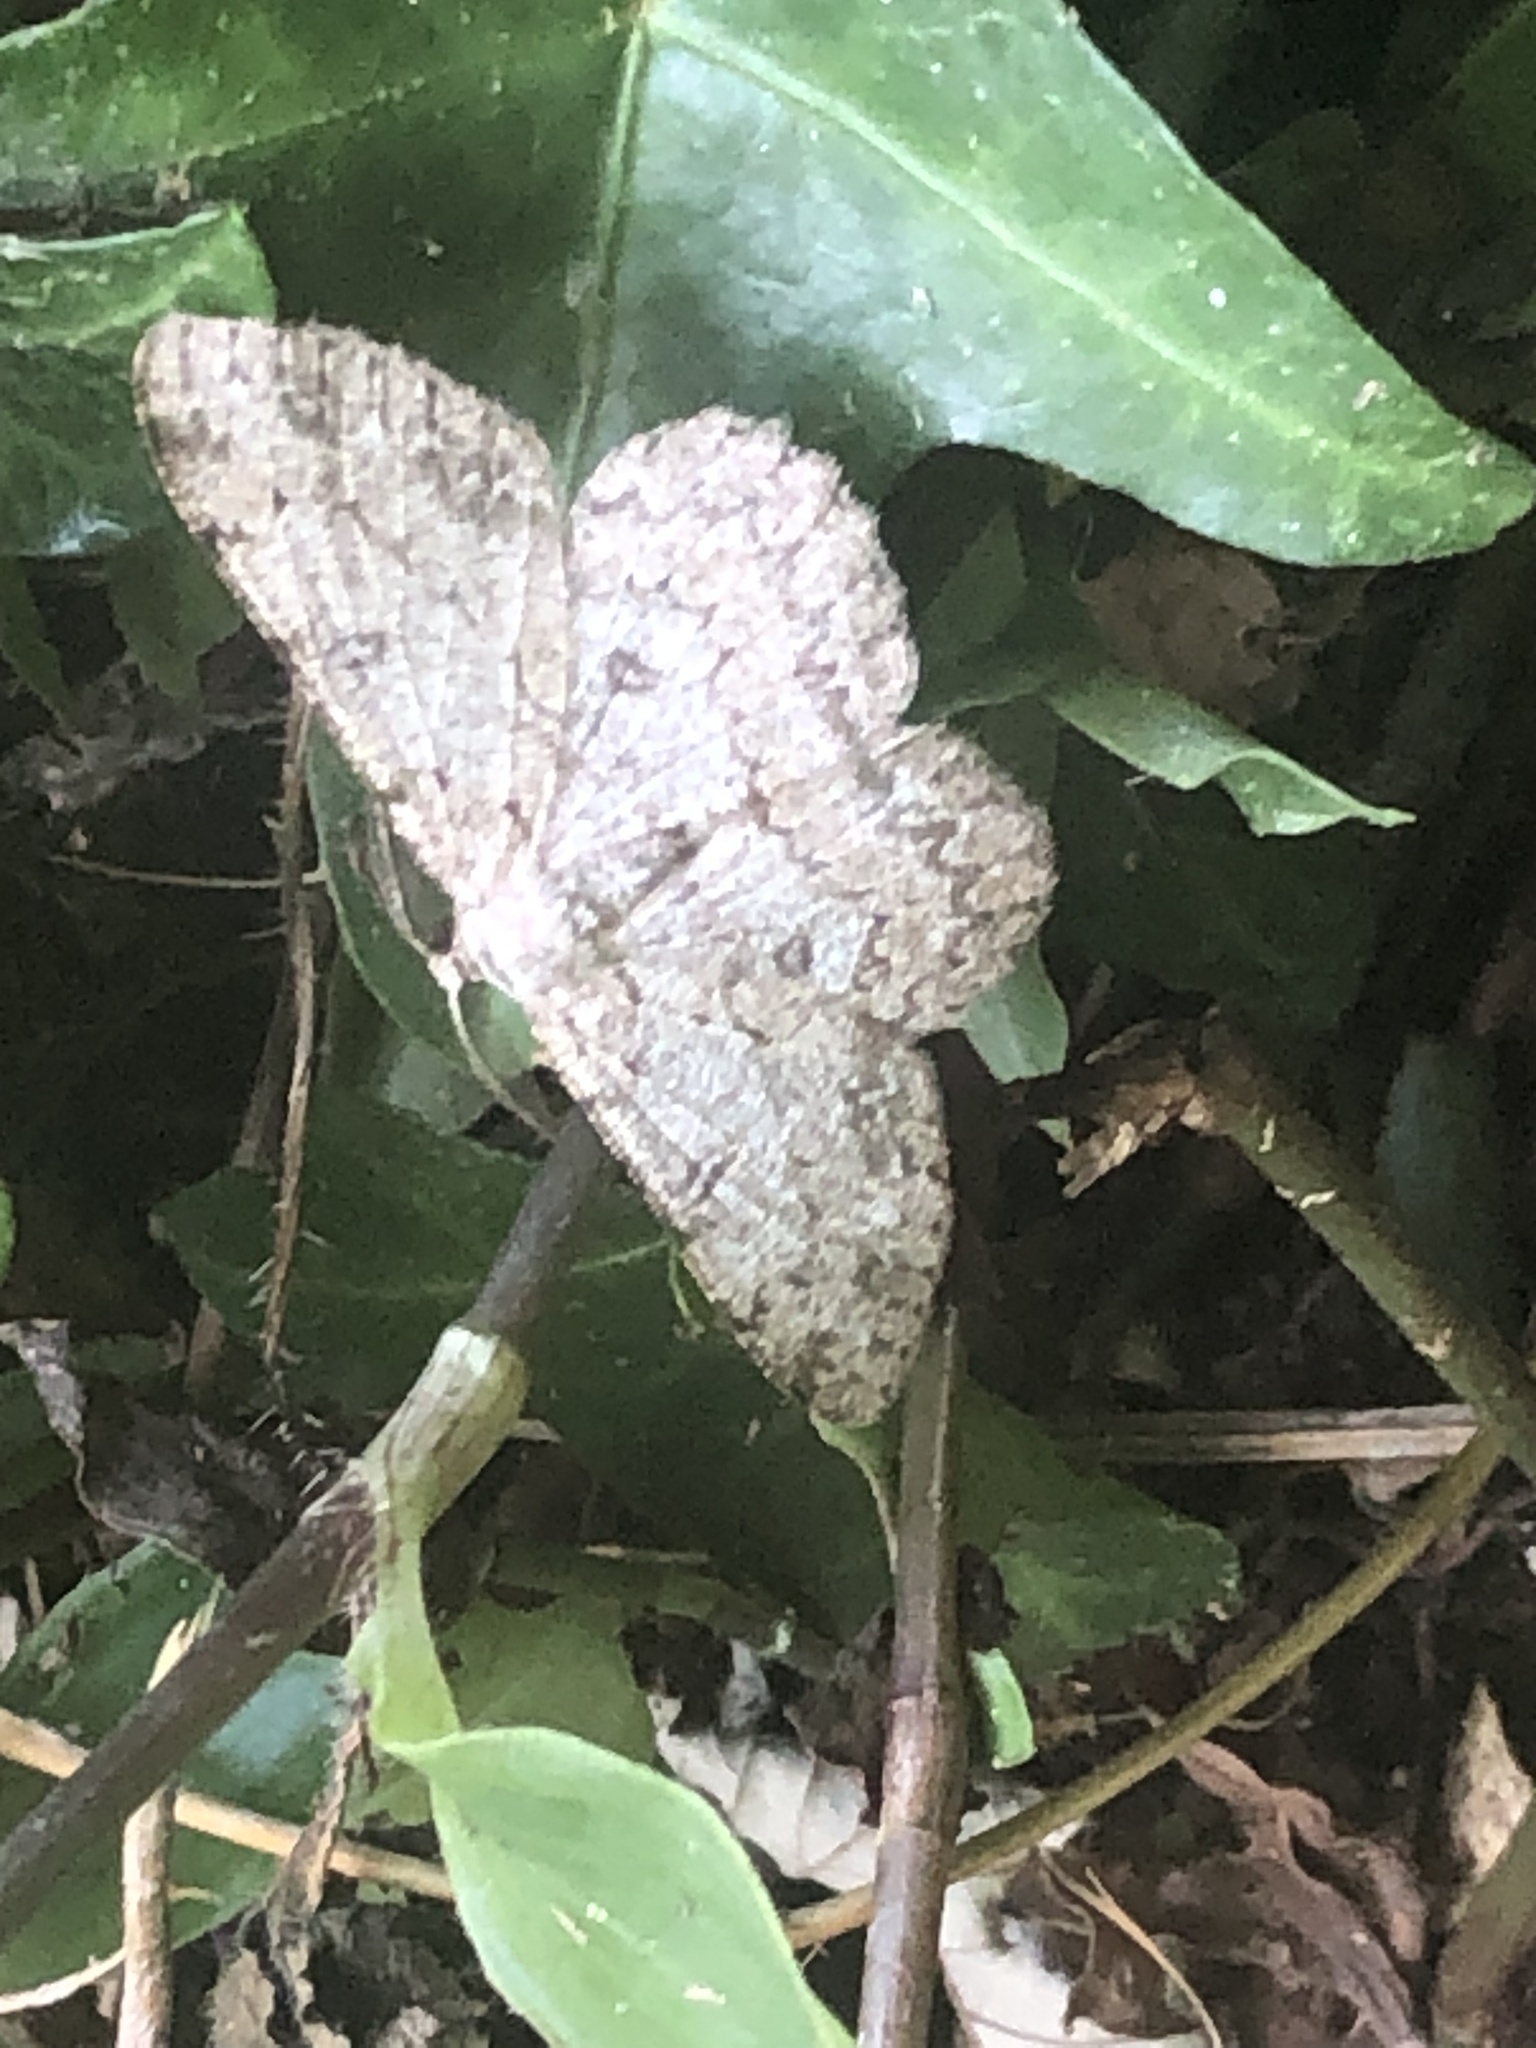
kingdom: Animalia
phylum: Arthropoda
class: Insecta
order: Lepidoptera
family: Geometridae
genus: Hypomecis
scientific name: Hypomecis punctinalis
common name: Pale oak beauty
